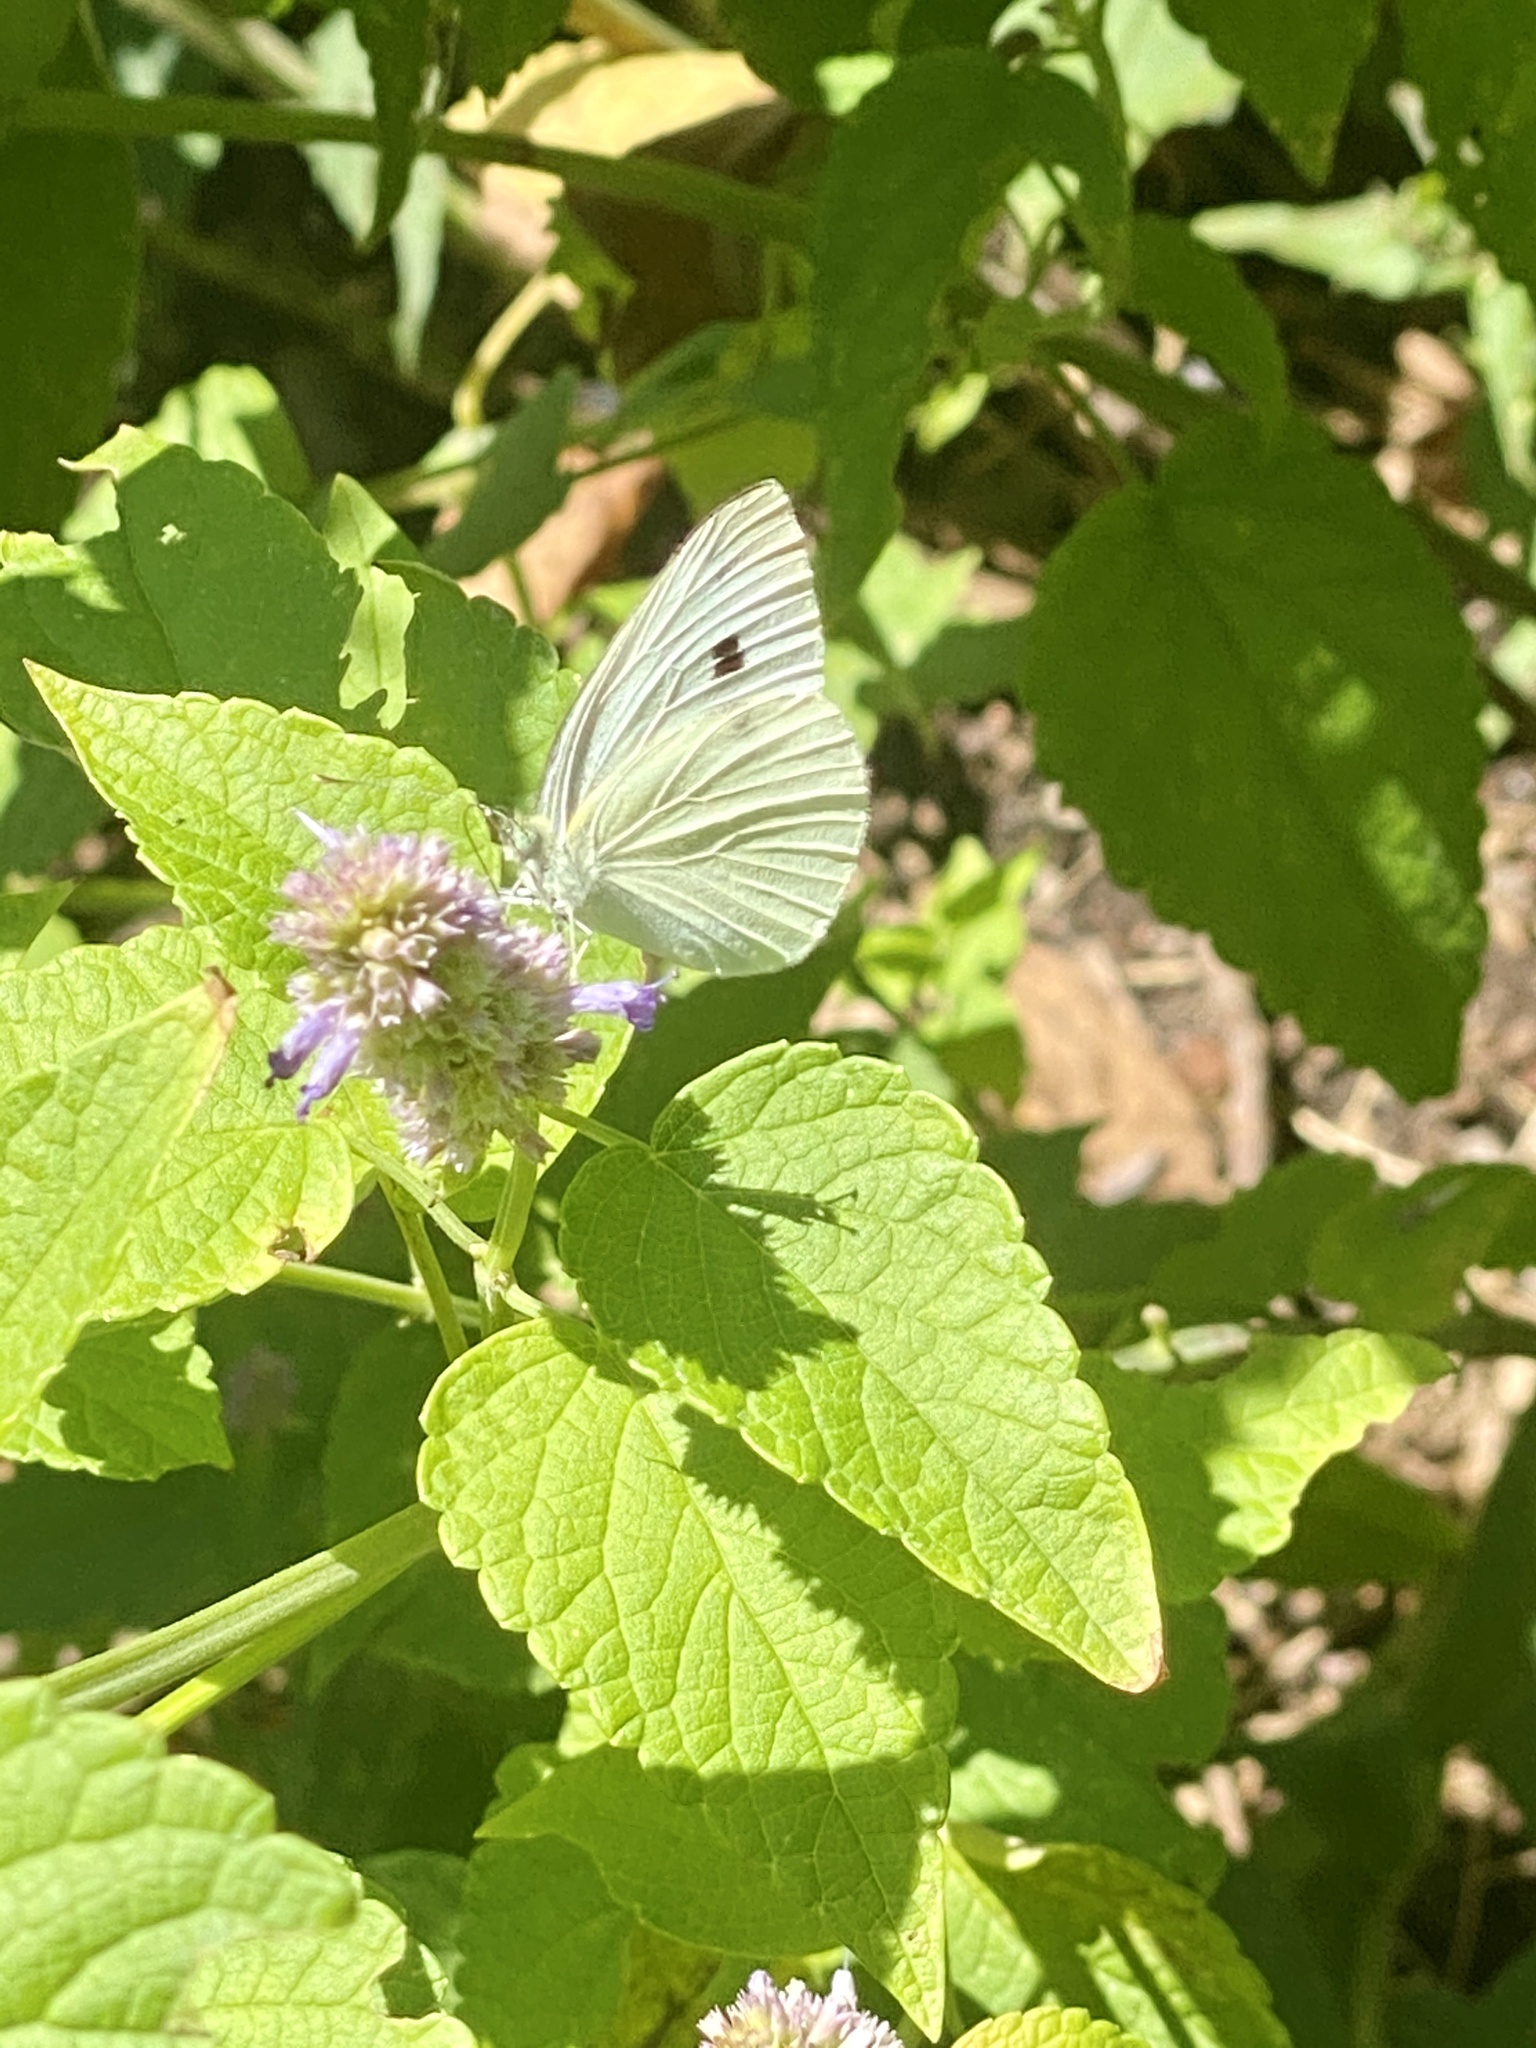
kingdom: Animalia
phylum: Arthropoda
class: Insecta
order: Lepidoptera
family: Pieridae
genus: Pieris
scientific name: Pieris rapae
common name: Small white
